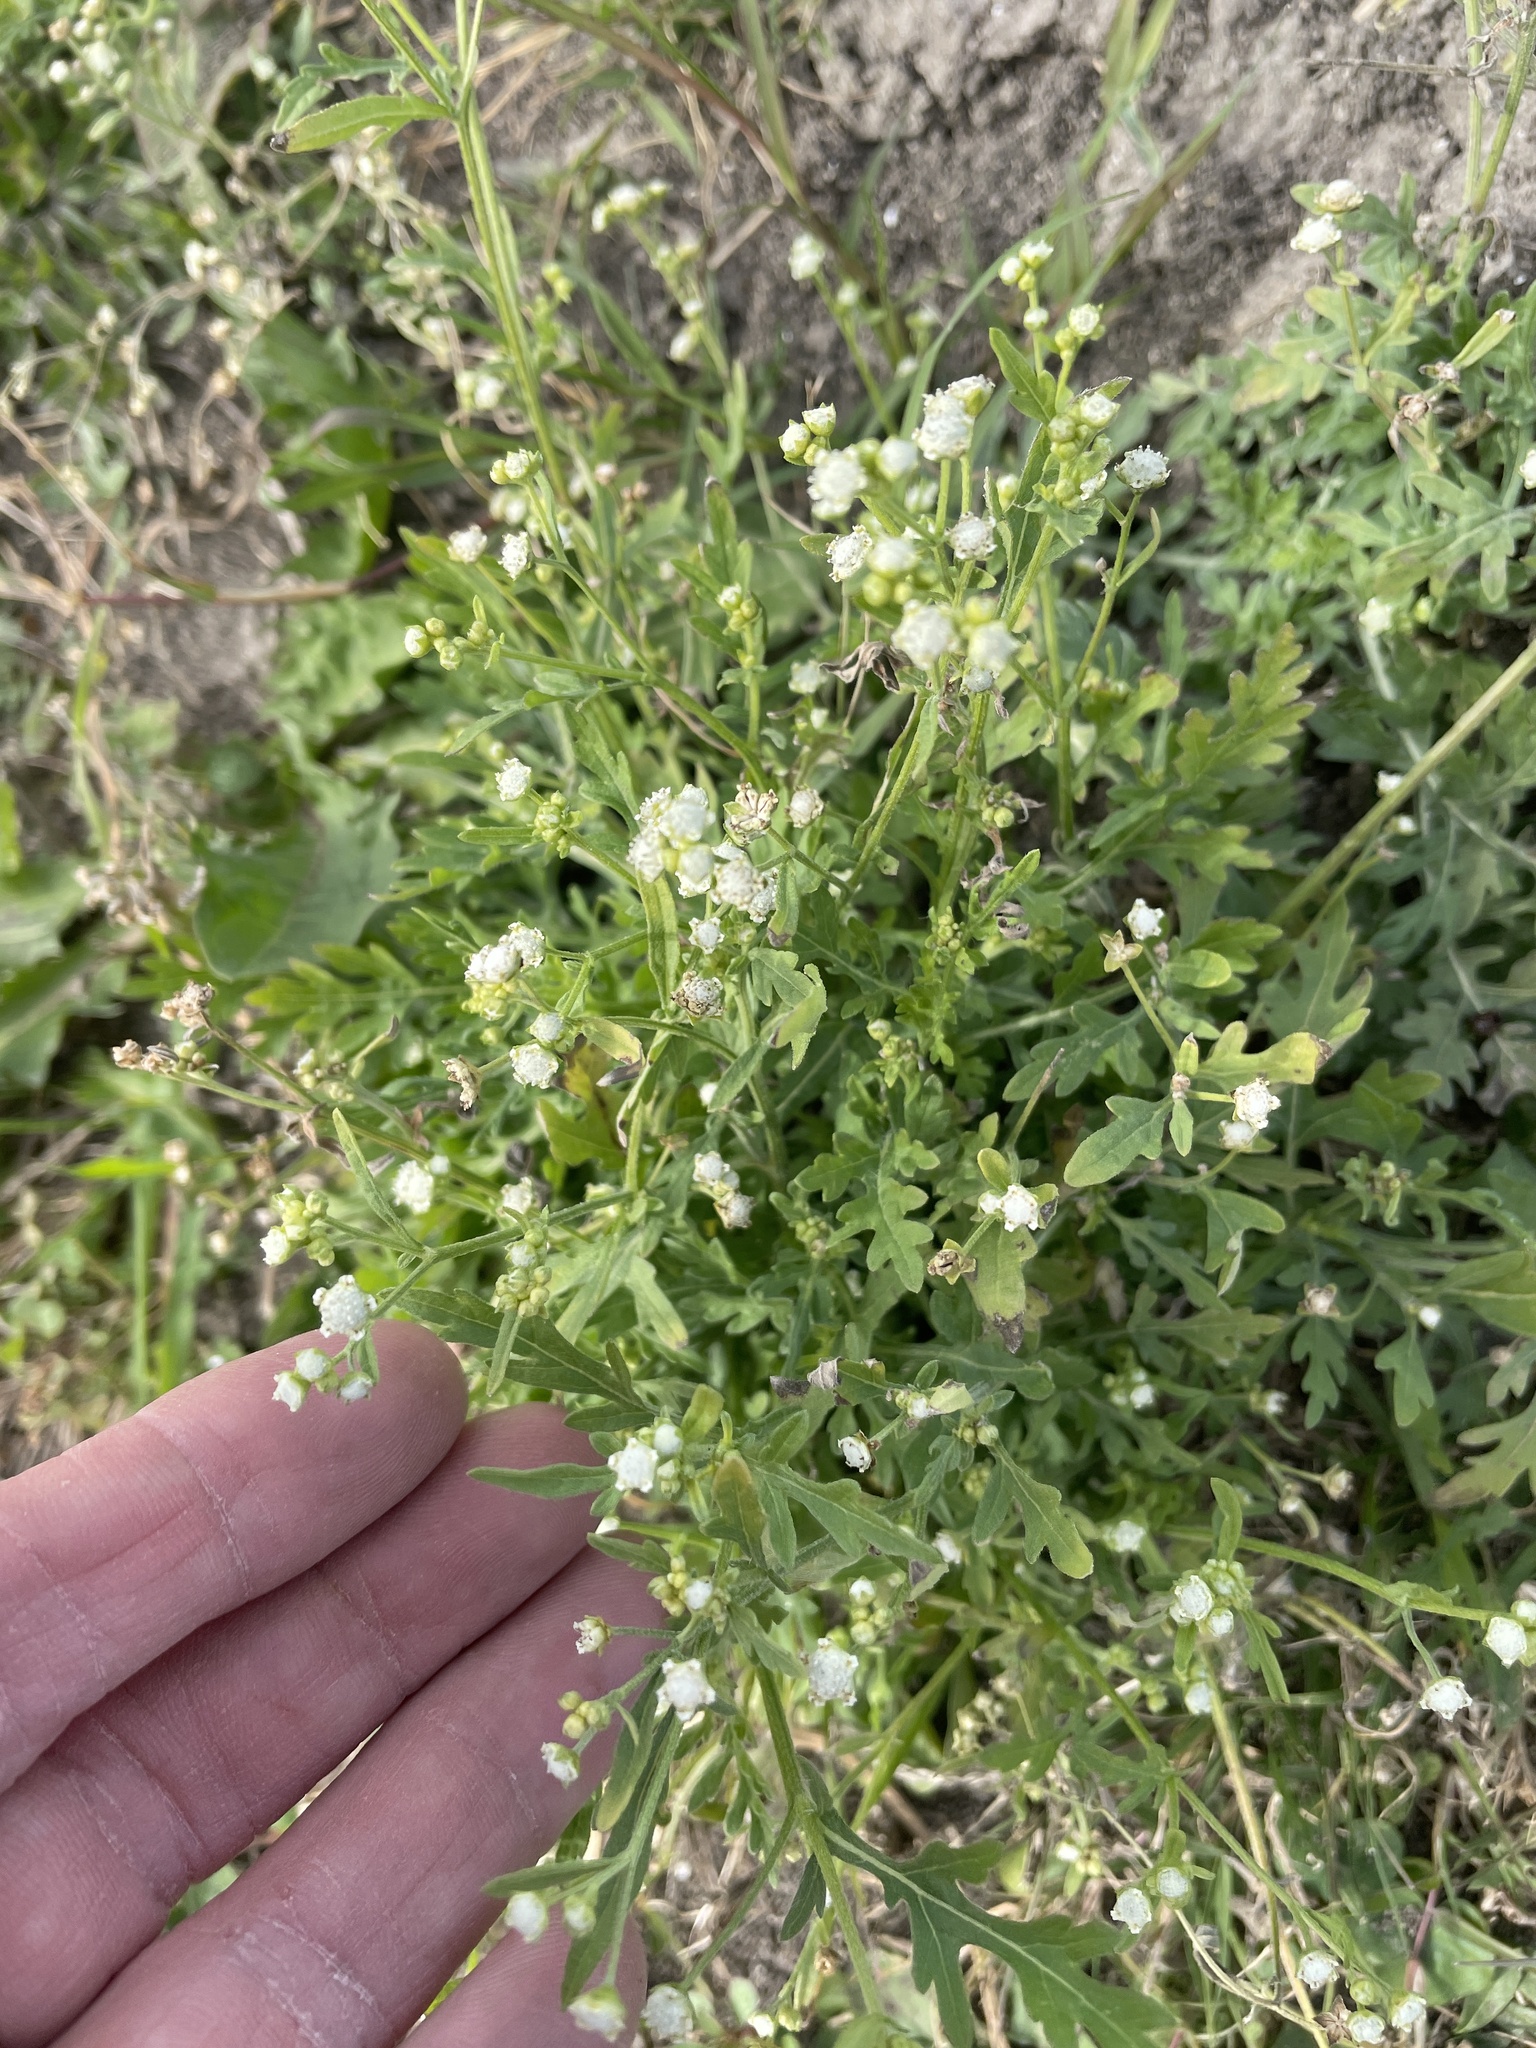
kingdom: Plantae
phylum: Tracheophyta
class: Magnoliopsida
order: Asterales
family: Asteraceae
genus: Parthenium
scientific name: Parthenium hysterophorus
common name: Santa maria feverfew
